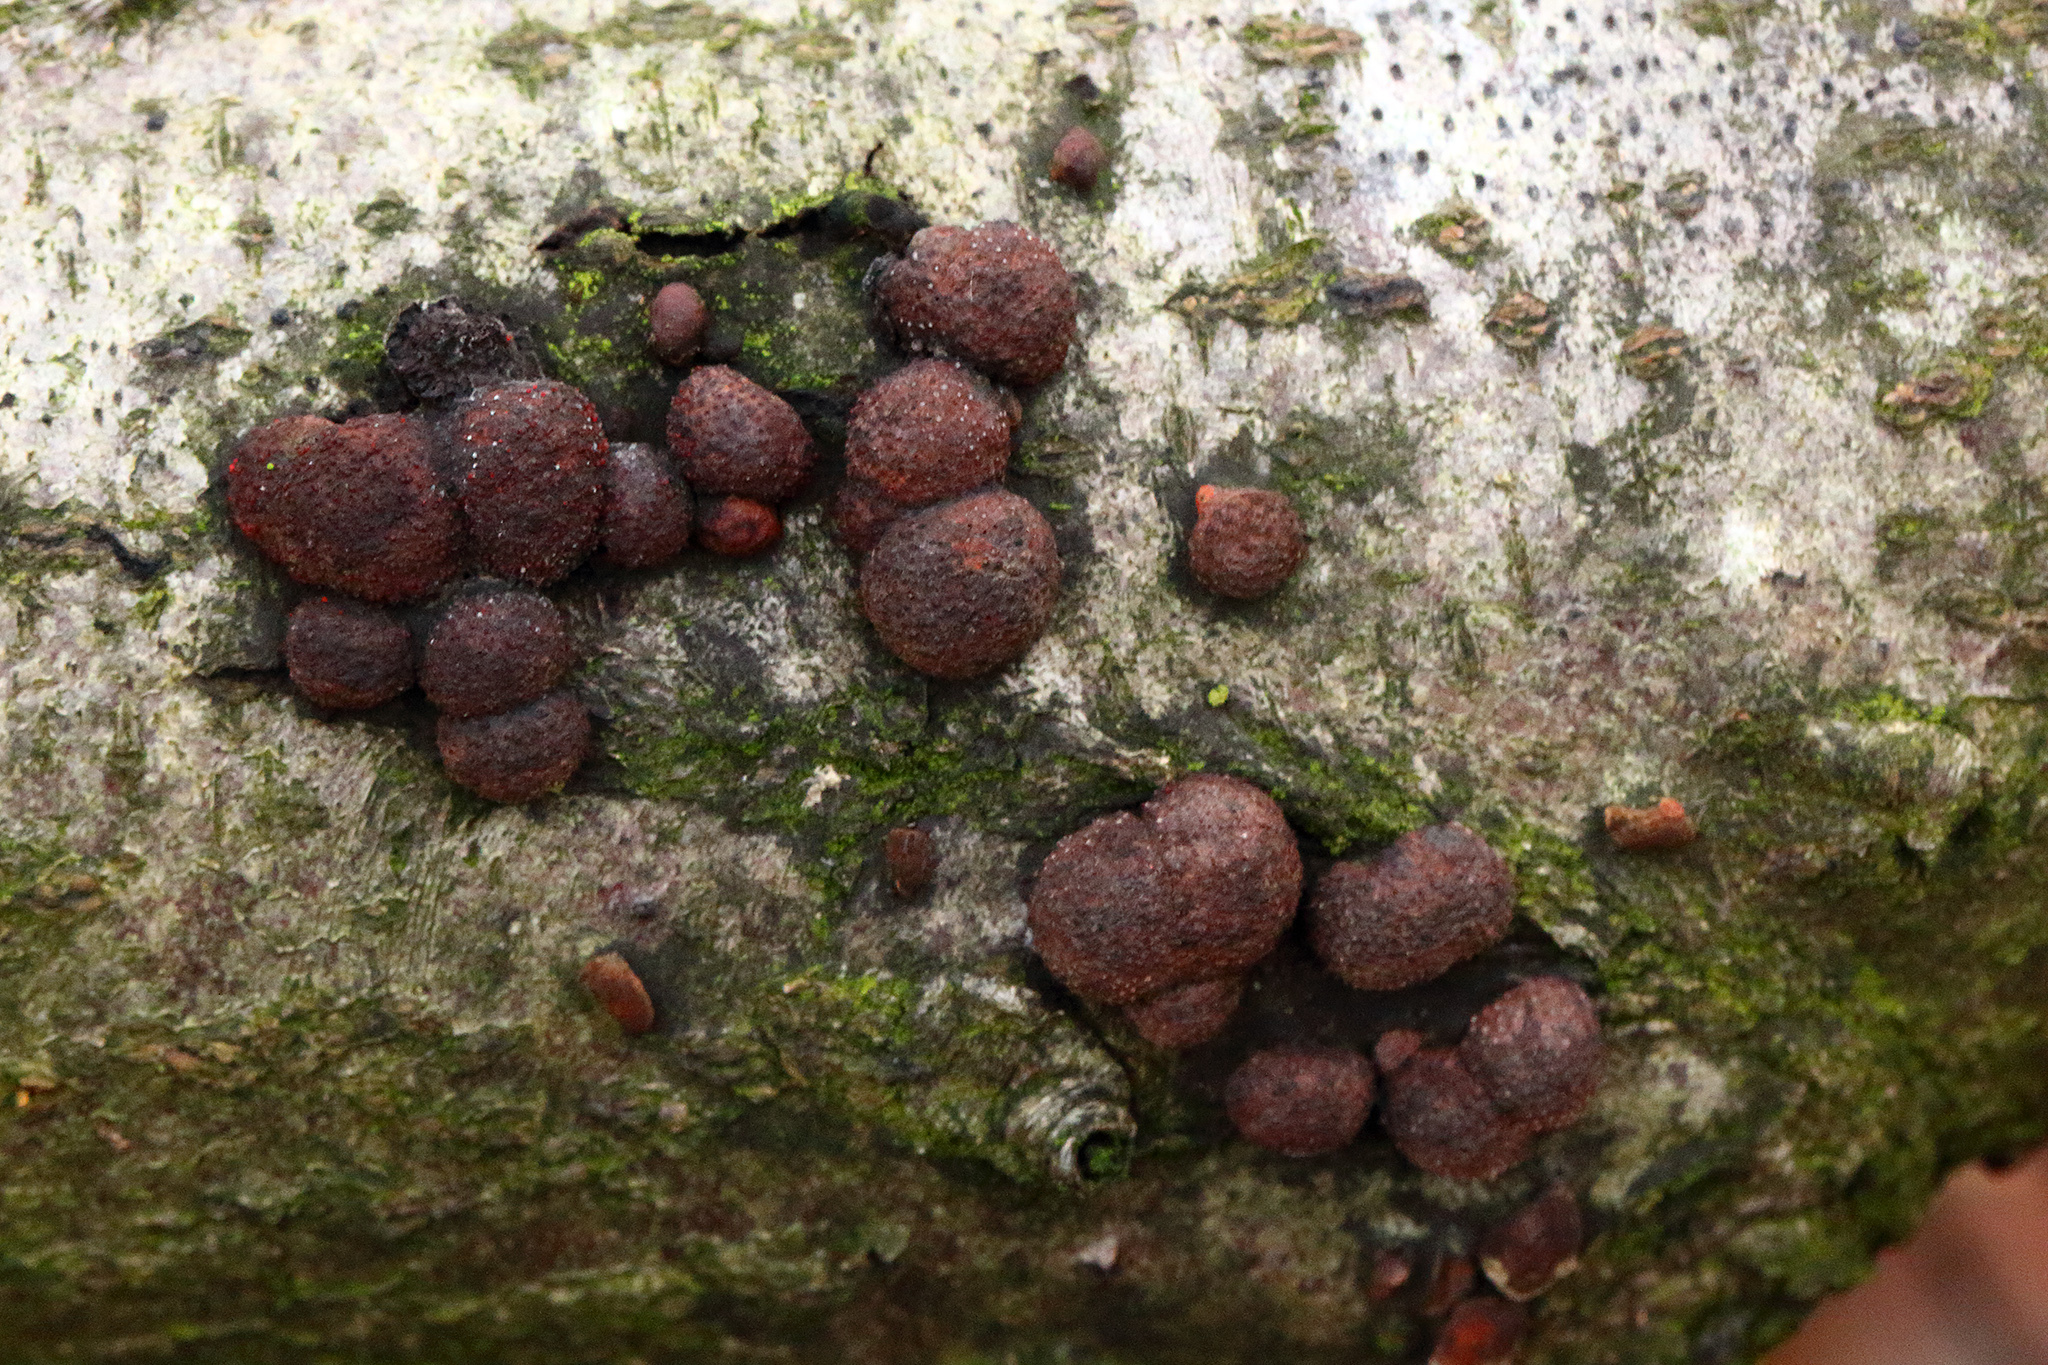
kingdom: Fungi
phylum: Ascomycota
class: Sordariomycetes
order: Xylariales
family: Hypoxylaceae
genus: Hypoxylon
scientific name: Hypoxylon fragiforme
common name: Beech woodwart
